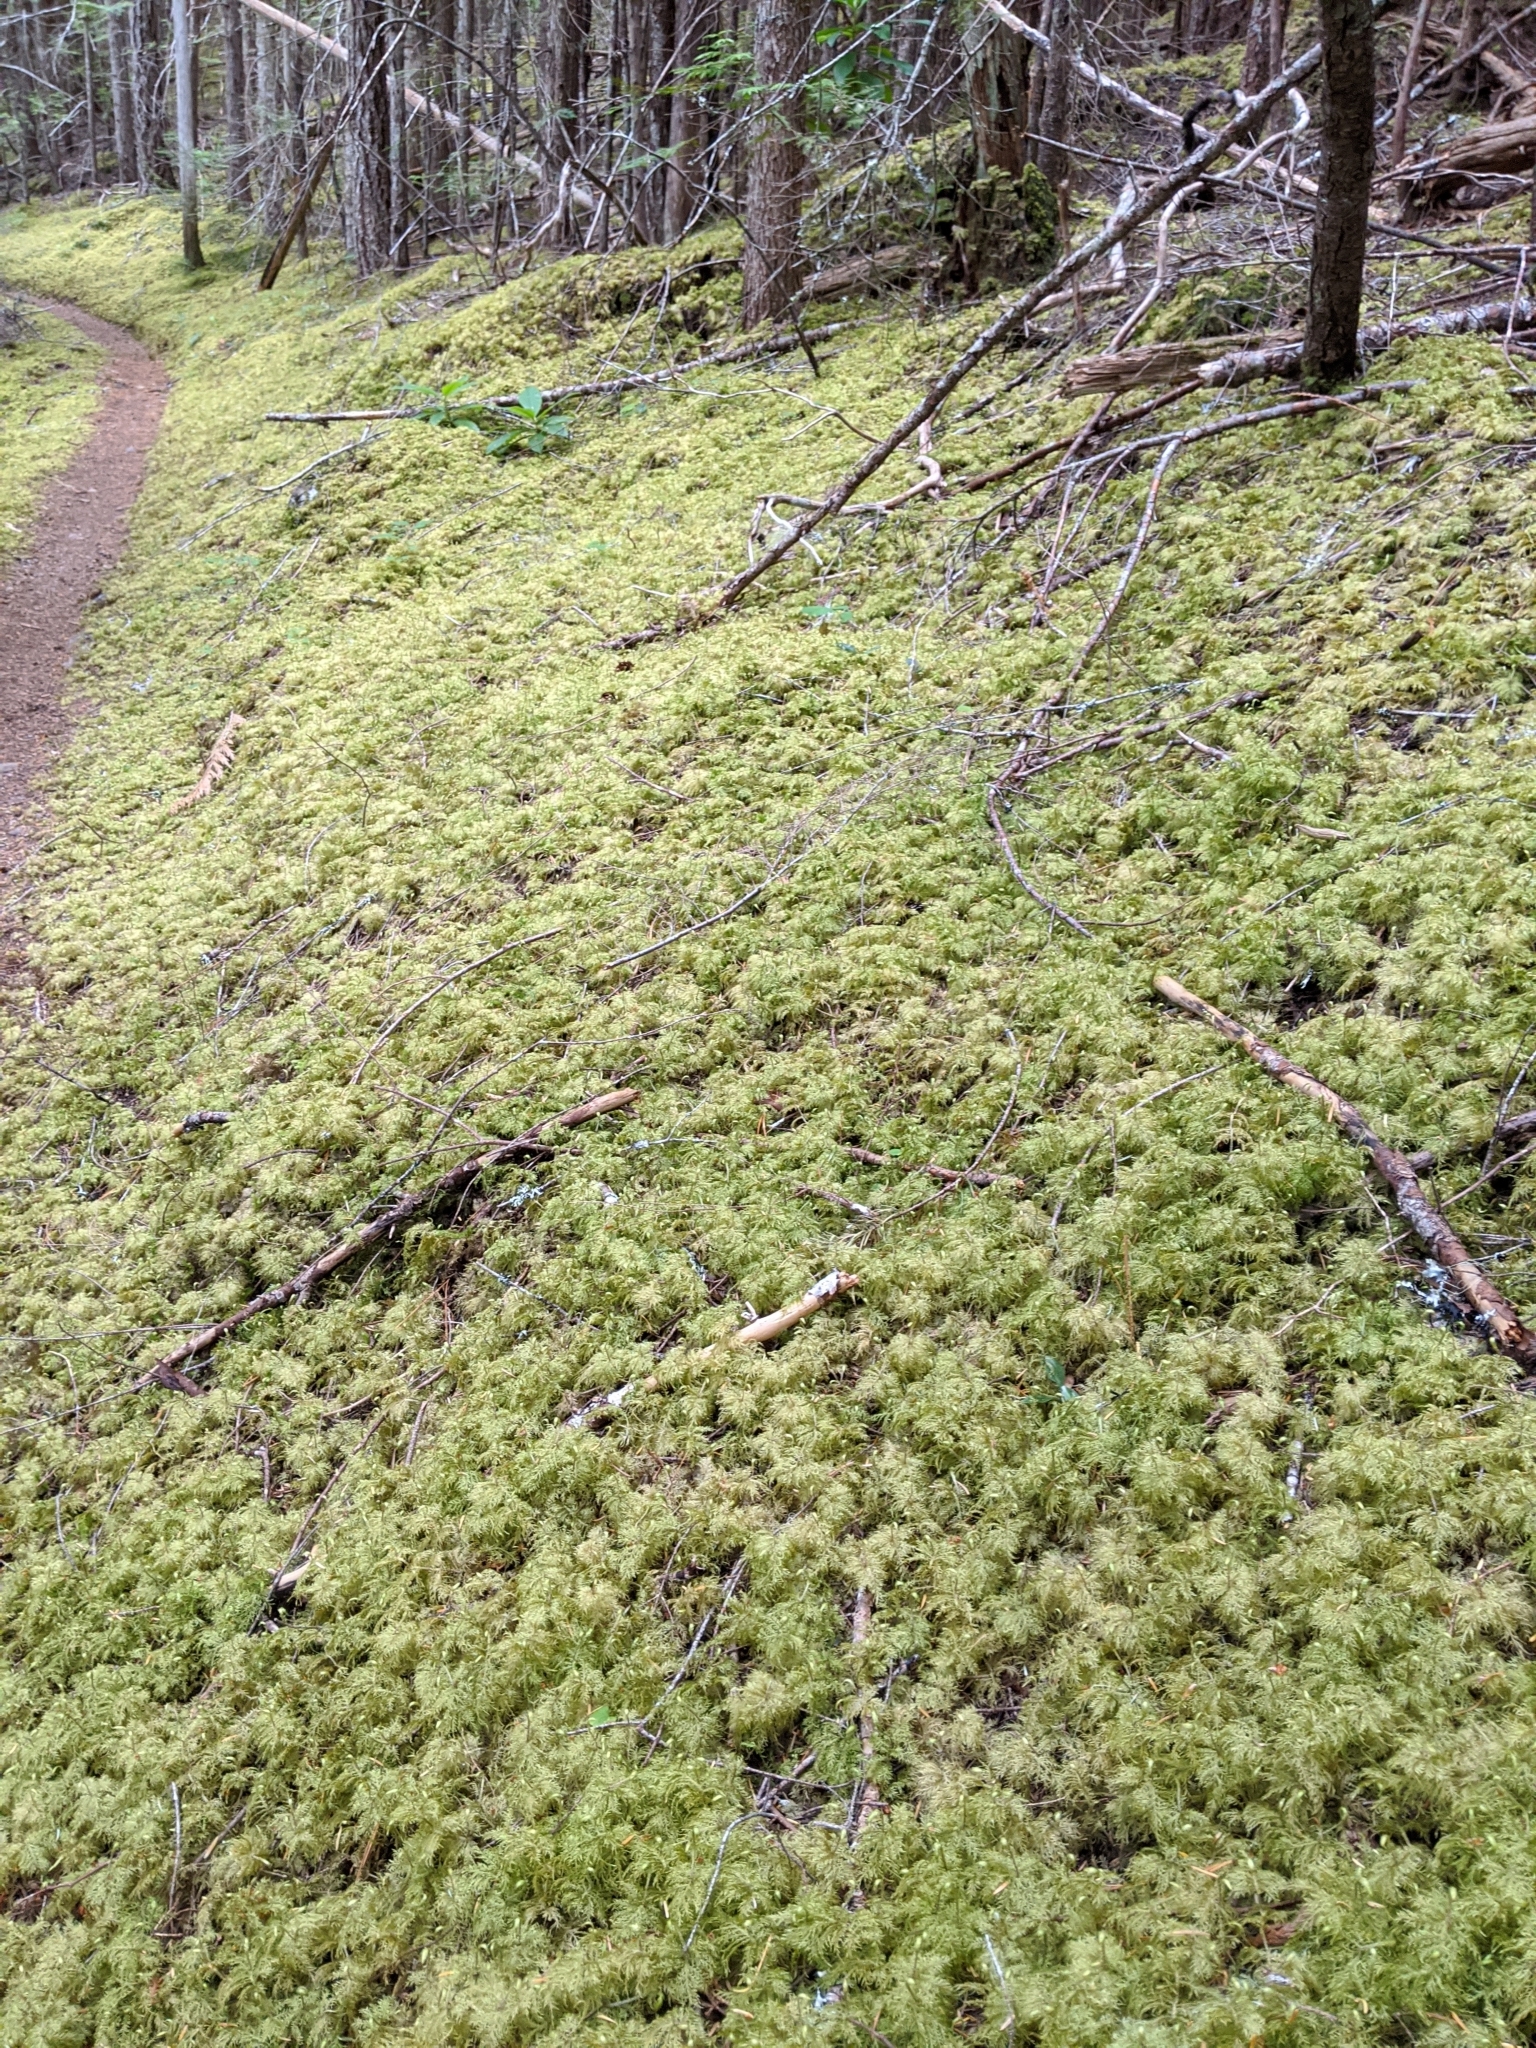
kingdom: Plantae
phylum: Bryophyta
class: Bryopsida
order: Hypnales
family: Hylocomiaceae
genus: Hylocomium
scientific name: Hylocomium splendens
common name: Stairstep moss
